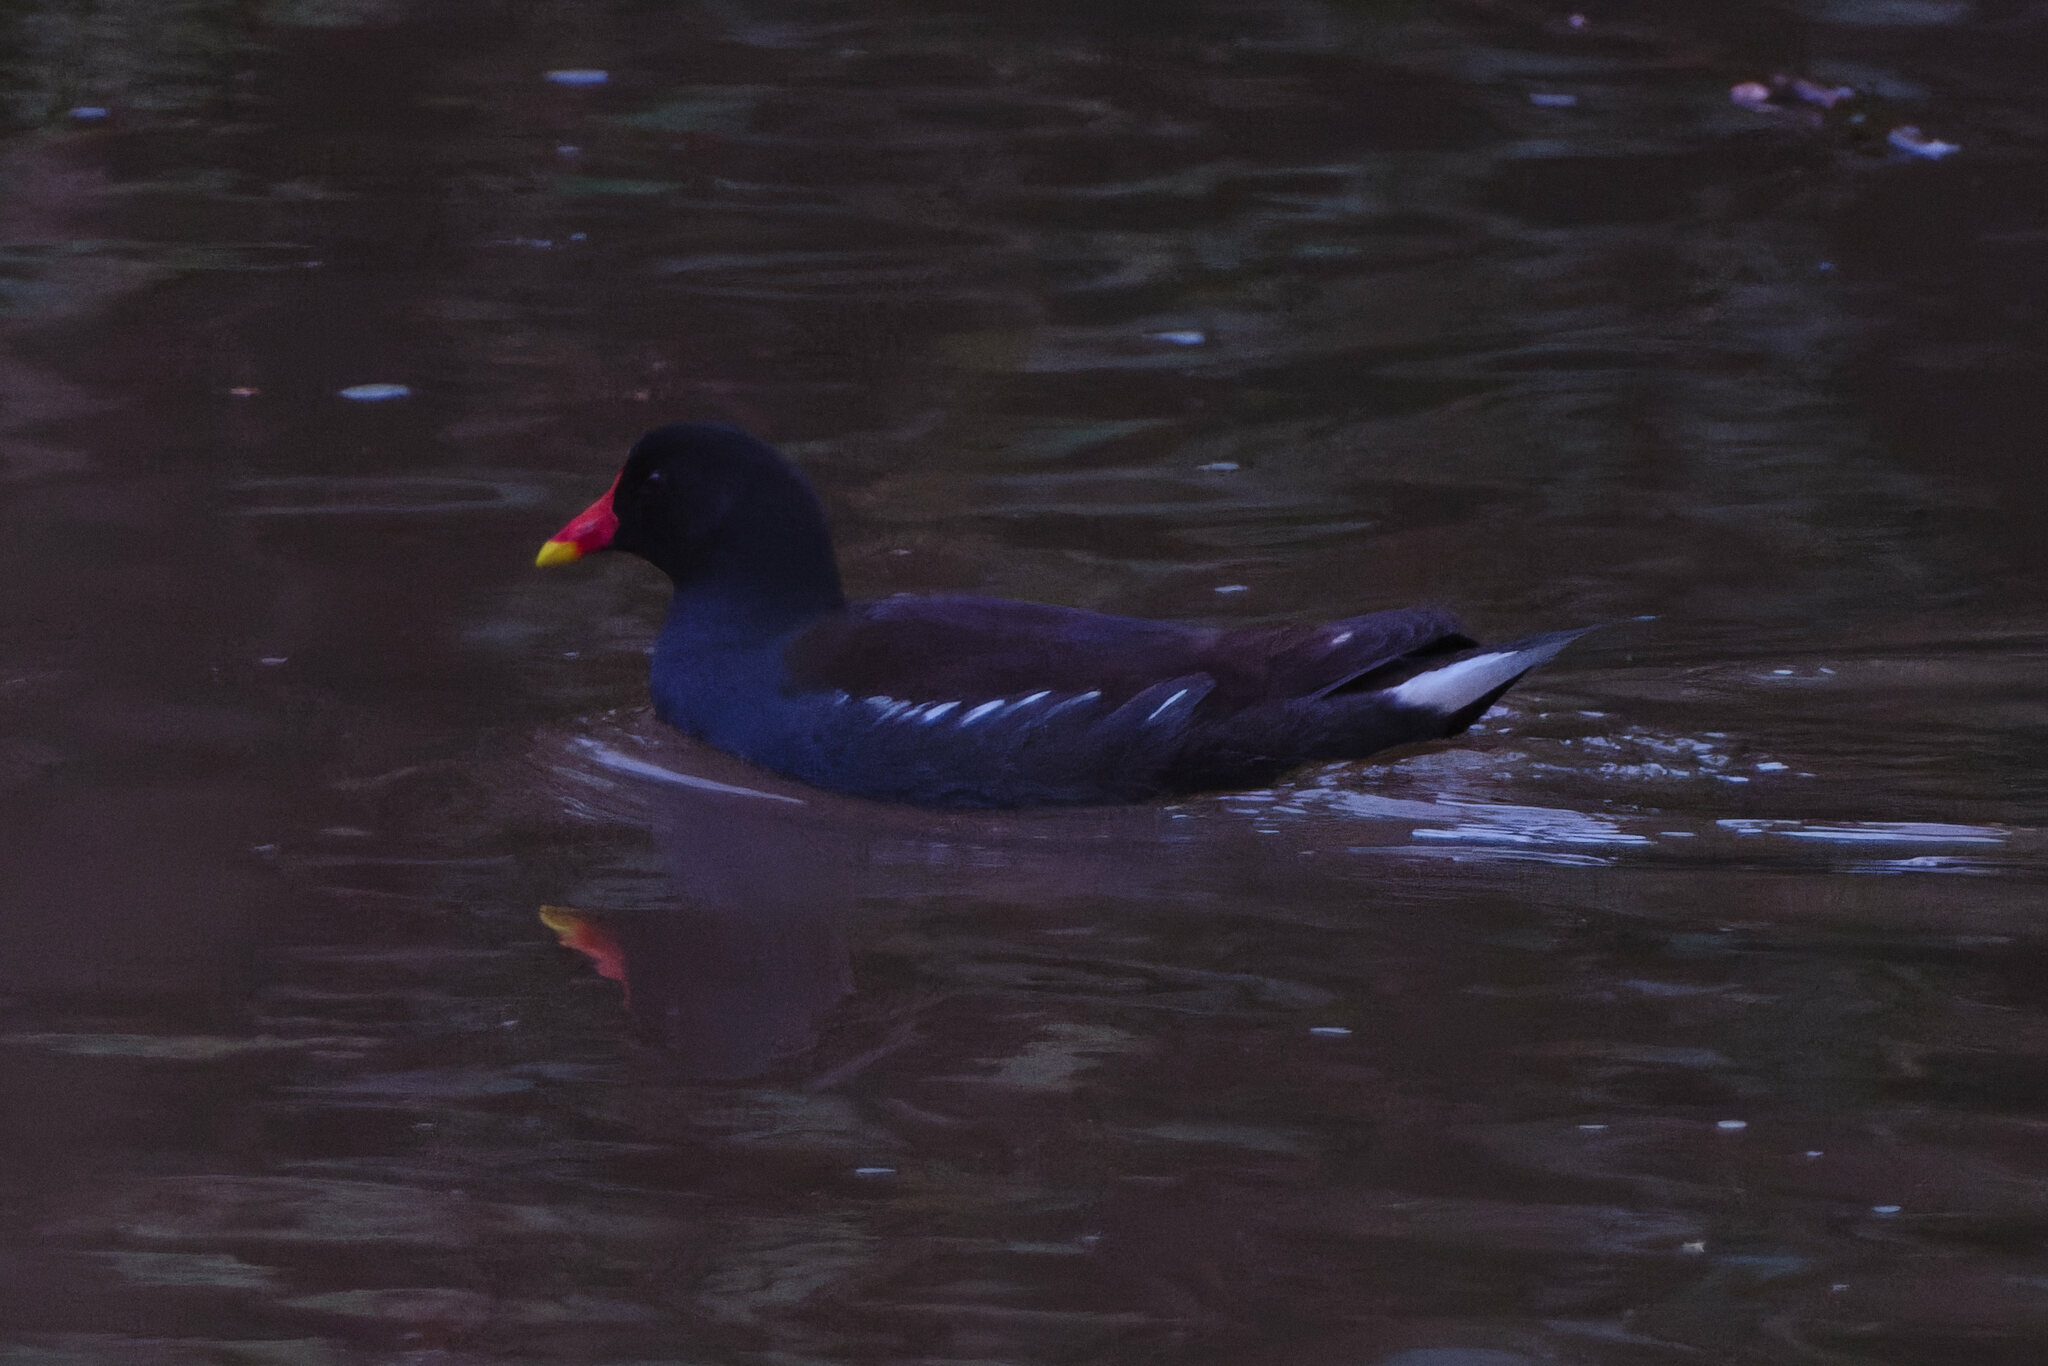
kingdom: Animalia
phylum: Chordata
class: Aves
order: Gruiformes
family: Rallidae
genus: Gallinula
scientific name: Gallinula chloropus
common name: Common moorhen
